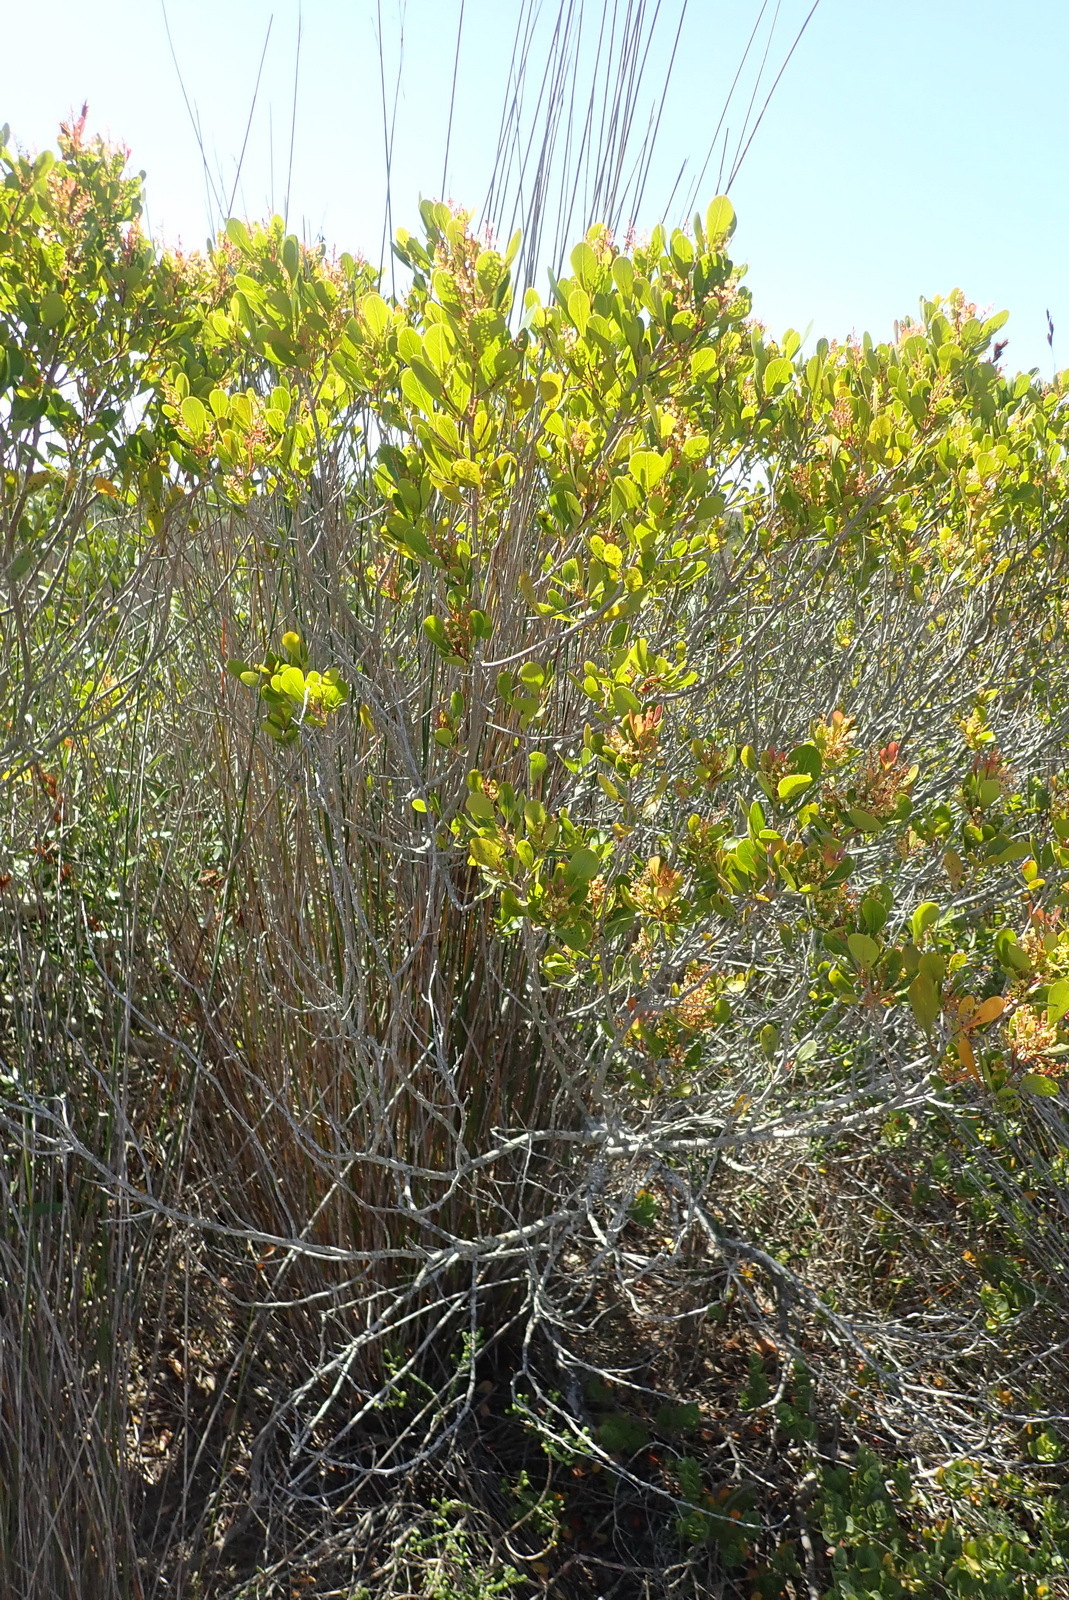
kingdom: Plantae
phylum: Tracheophyta
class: Magnoliopsida
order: Sapindales
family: Anacardiaceae
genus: Searsia
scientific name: Searsia lucida
